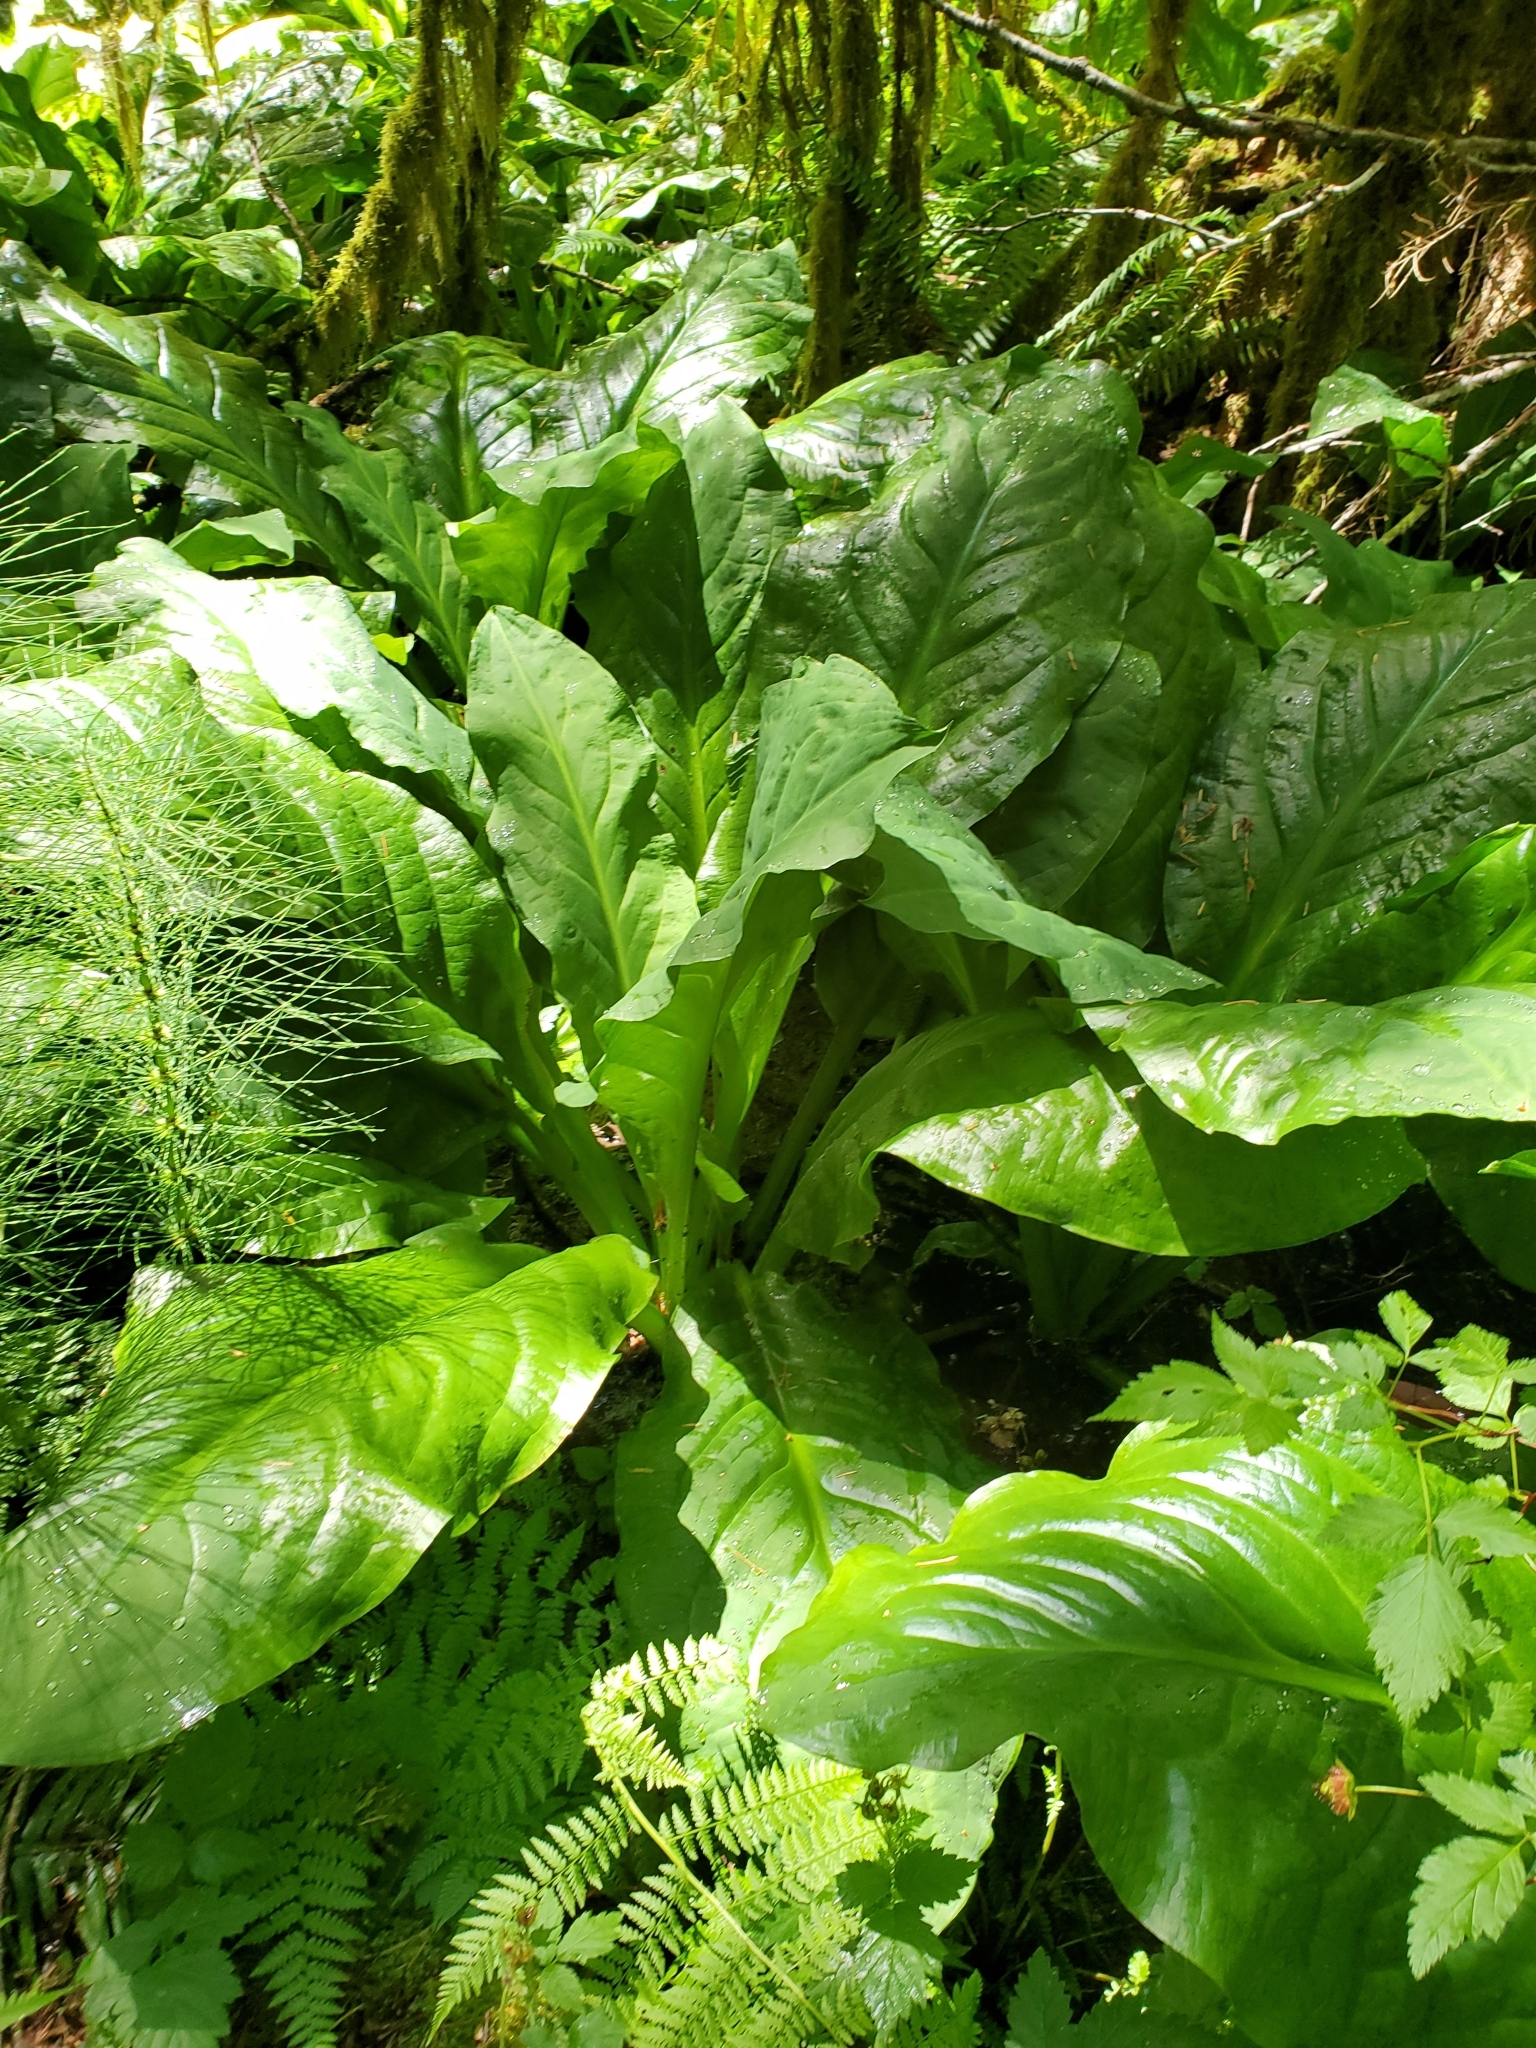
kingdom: Plantae
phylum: Tracheophyta
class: Liliopsida
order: Alismatales
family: Araceae
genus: Lysichiton
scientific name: Lysichiton americanus
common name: American skunk cabbage
